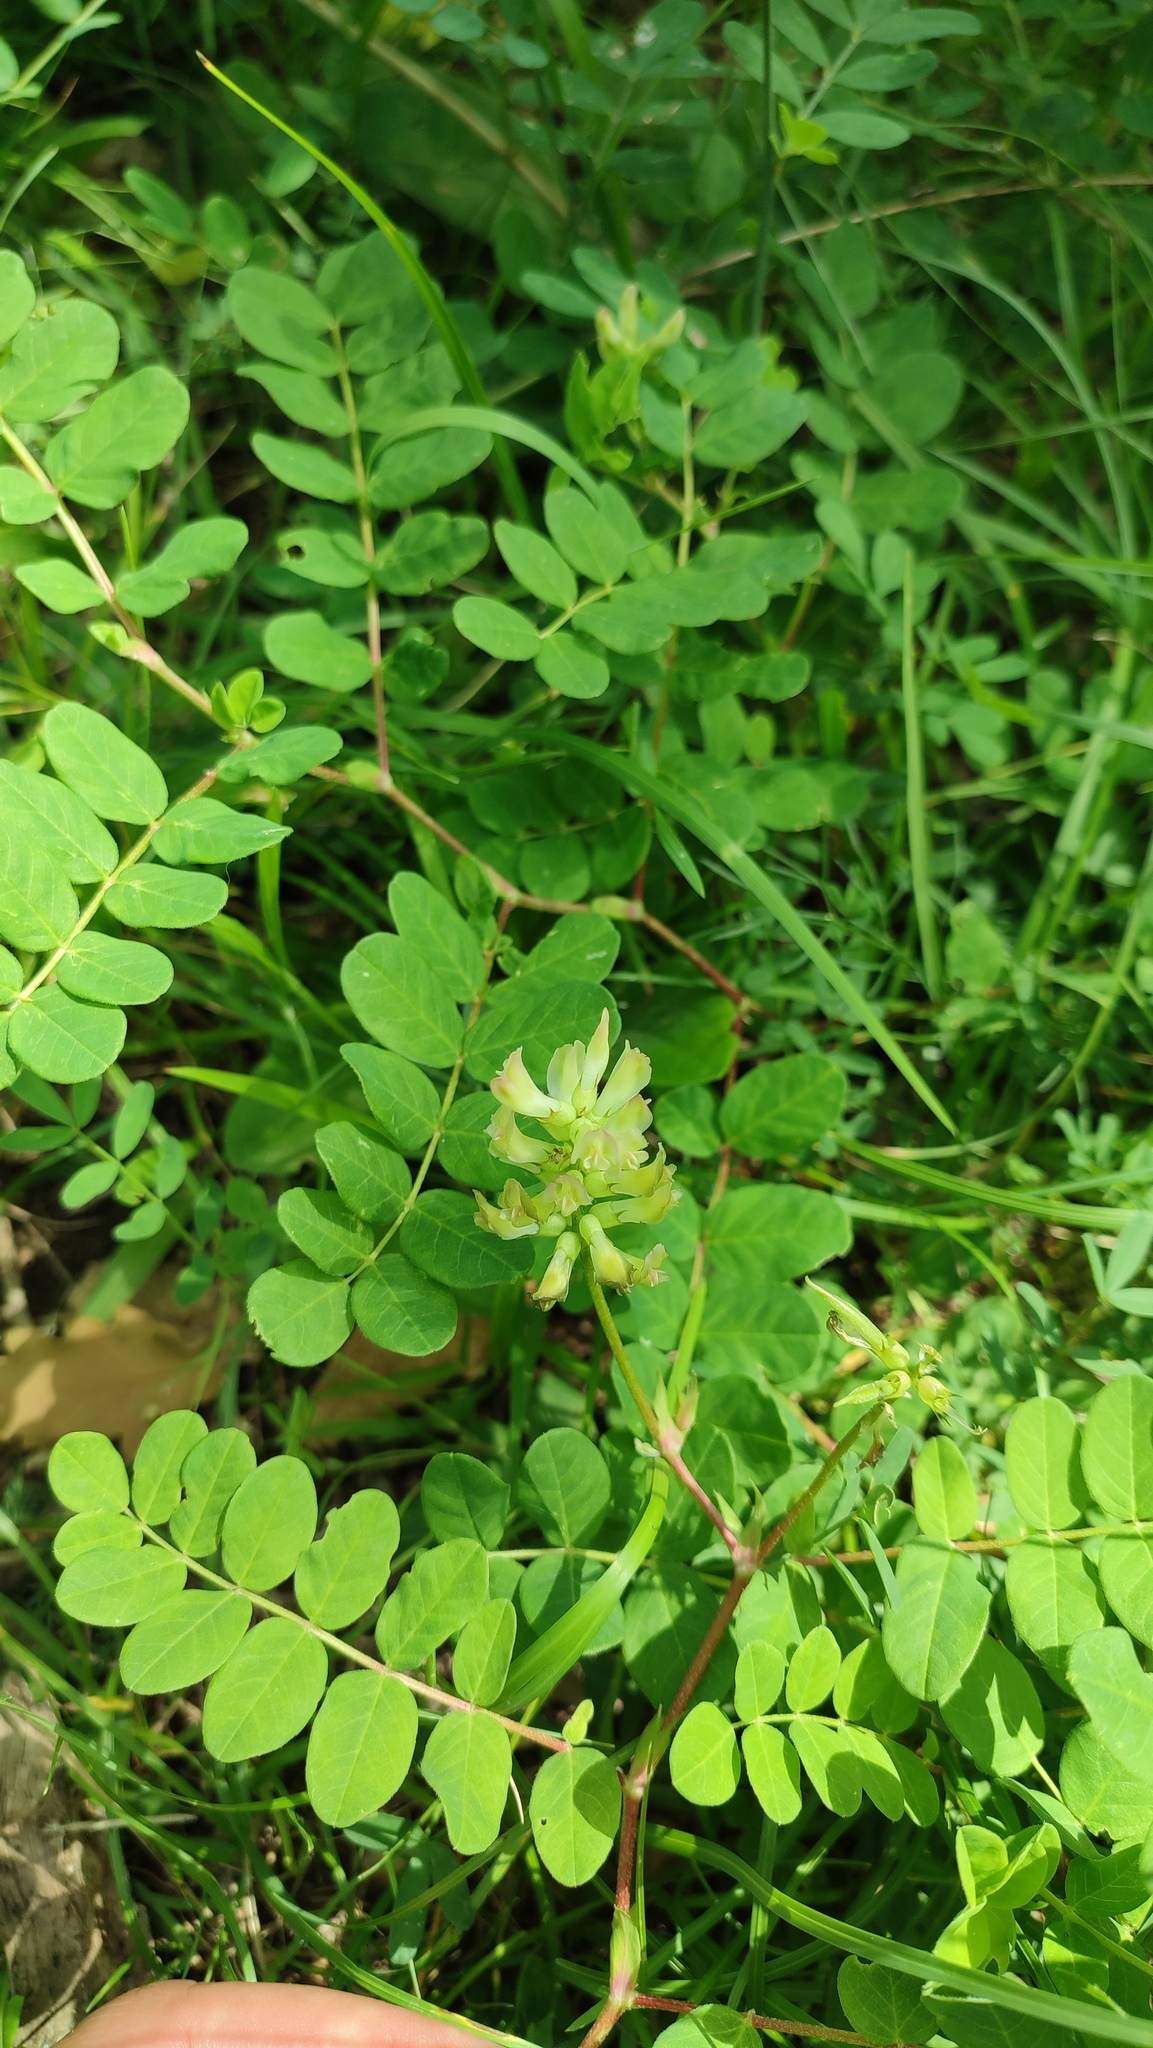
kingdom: Plantae
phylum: Tracheophyta
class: Magnoliopsida
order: Fabales
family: Fabaceae
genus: Astragalus
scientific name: Astragalus glycyphyllos
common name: Wild liquorice
